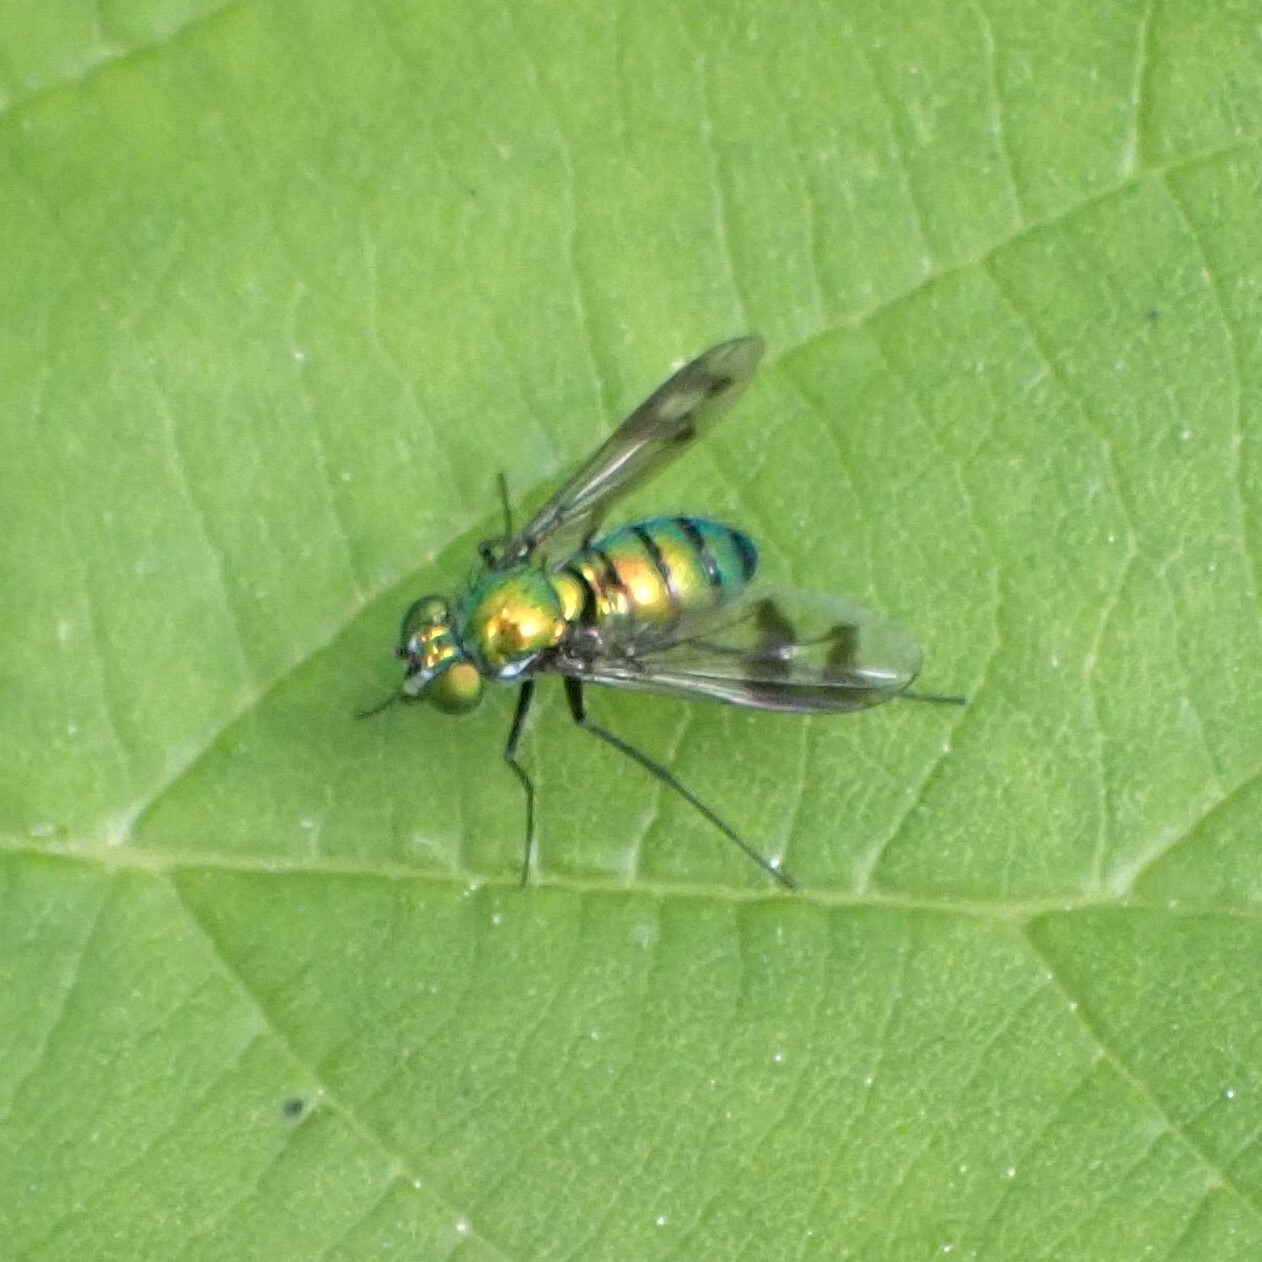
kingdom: Animalia
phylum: Arthropoda
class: Insecta
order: Diptera
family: Dolichopodidae
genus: Condylostylus
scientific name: Condylostylus occidentalis
